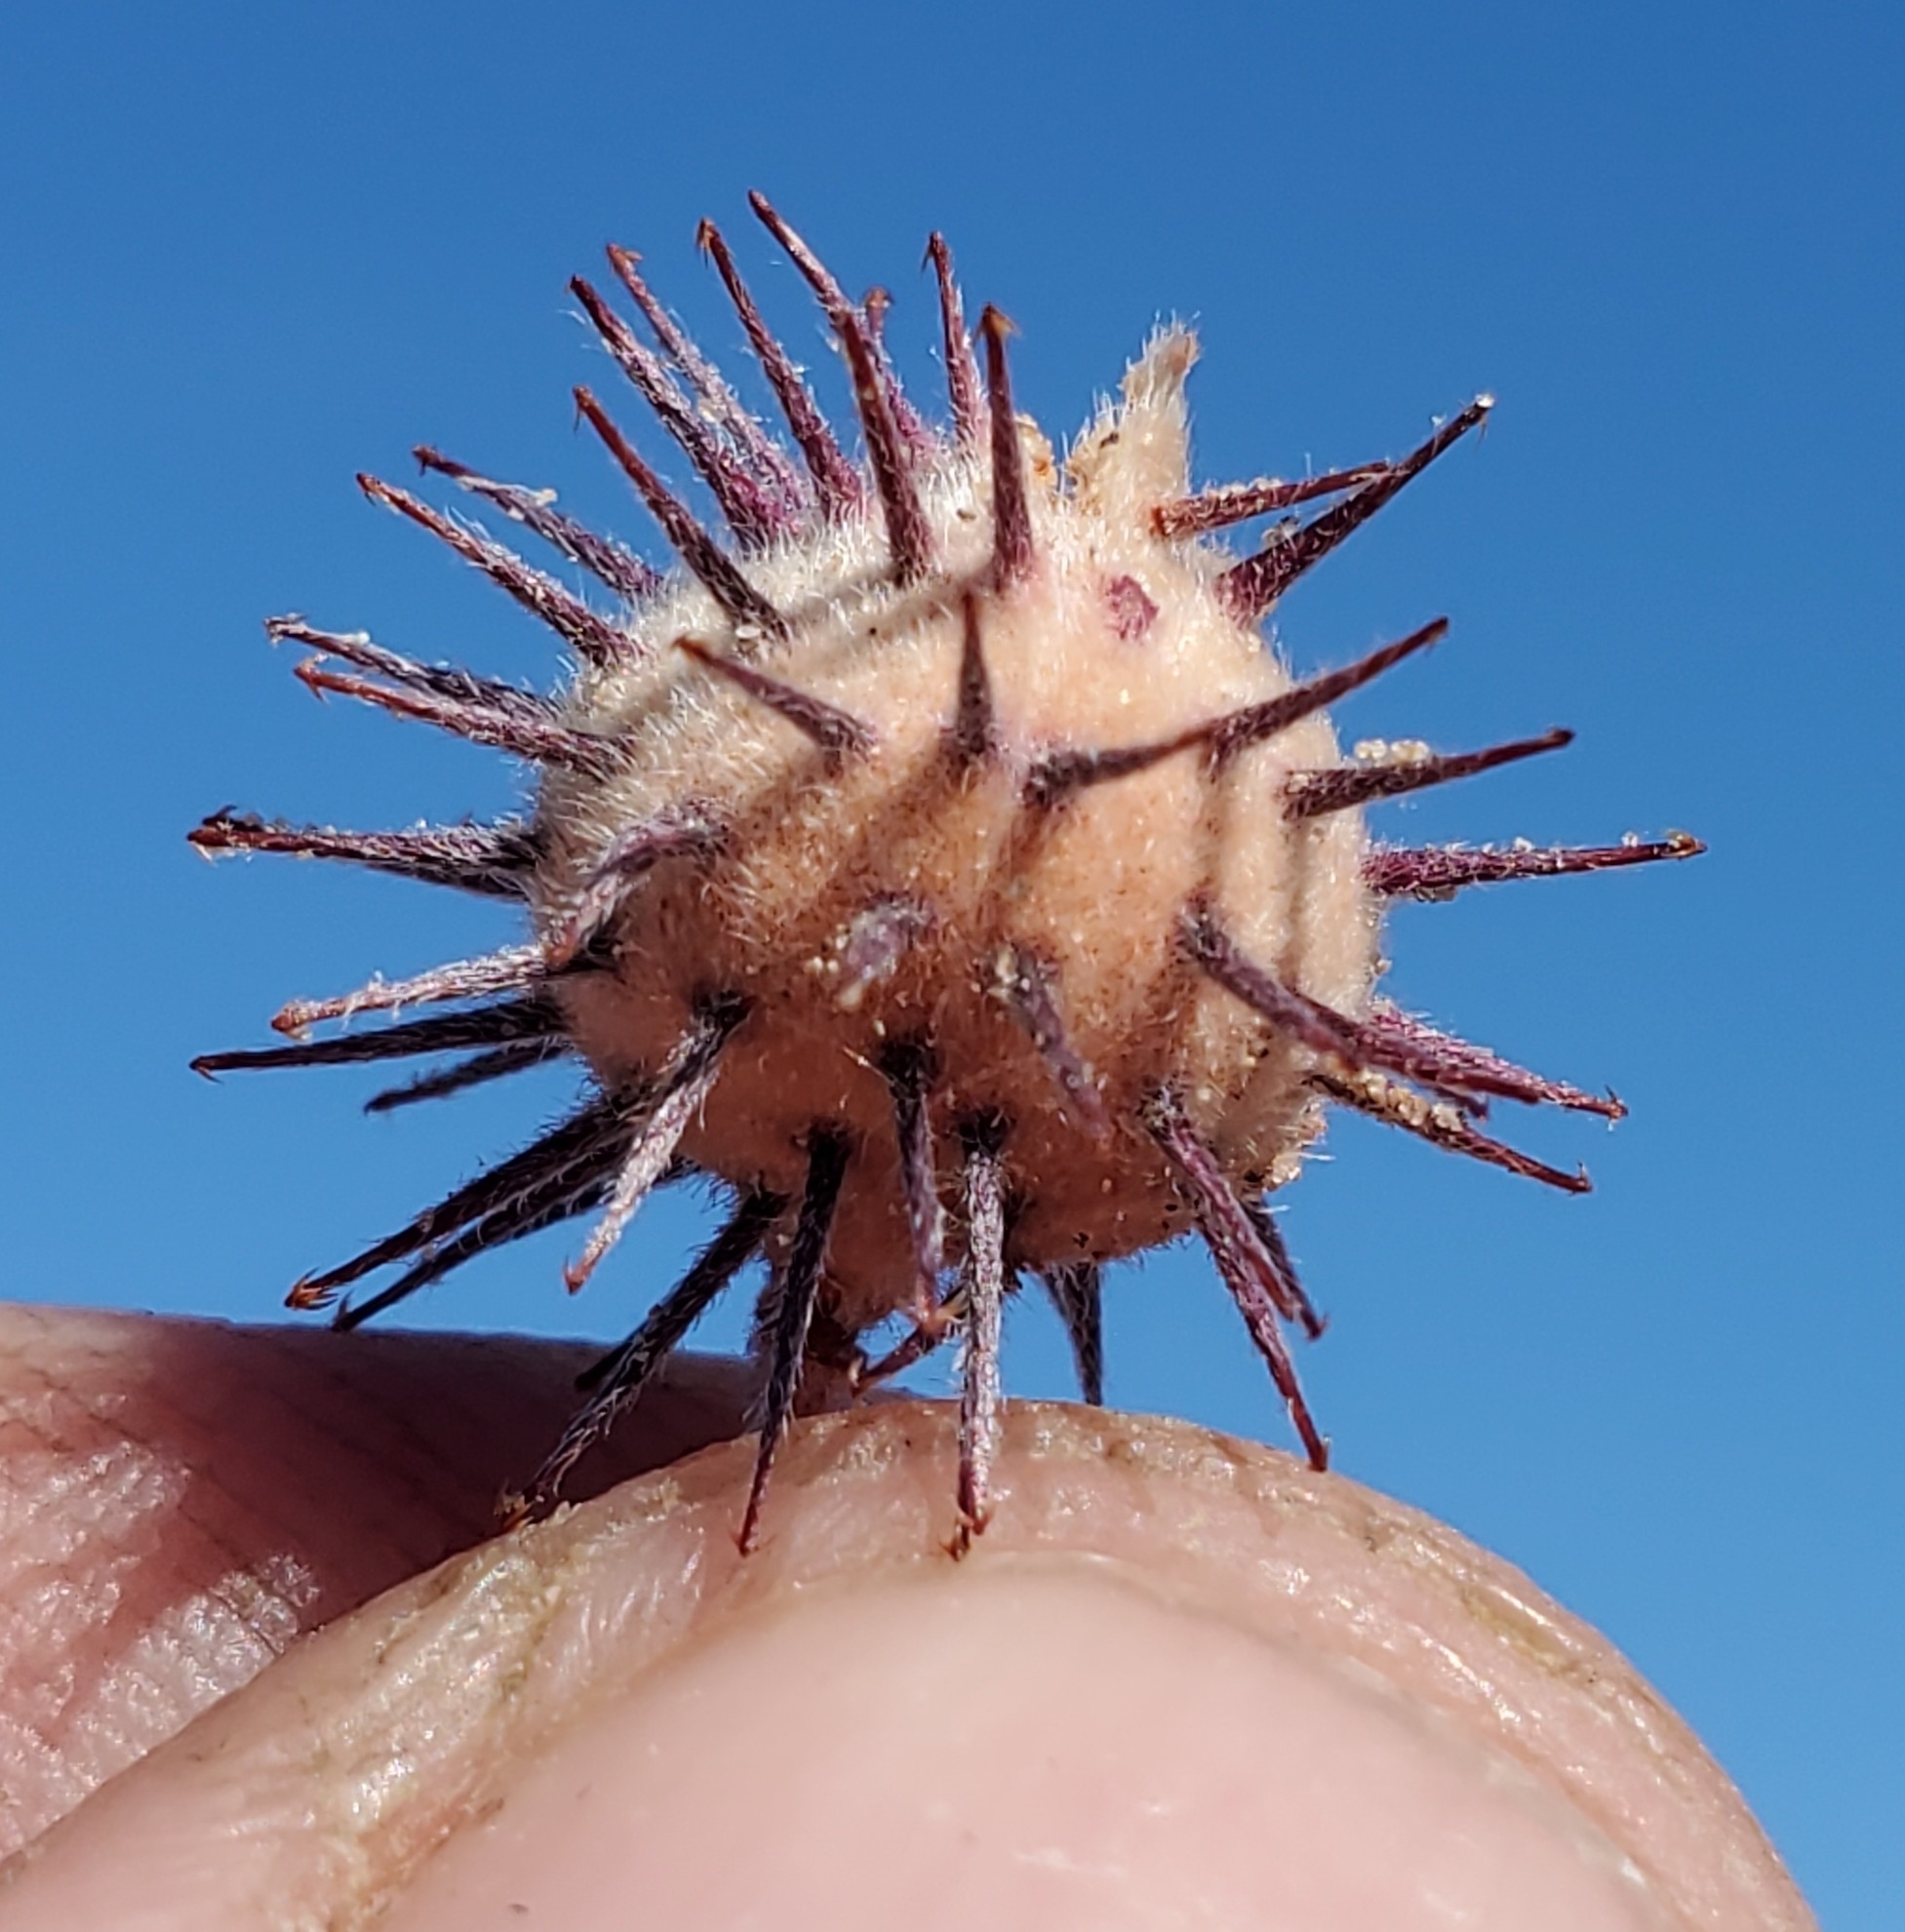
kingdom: Plantae
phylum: Tracheophyta
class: Magnoliopsida
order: Zygophyllales
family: Krameriaceae
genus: Krameria
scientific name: Krameria bicolor
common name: White ratany
